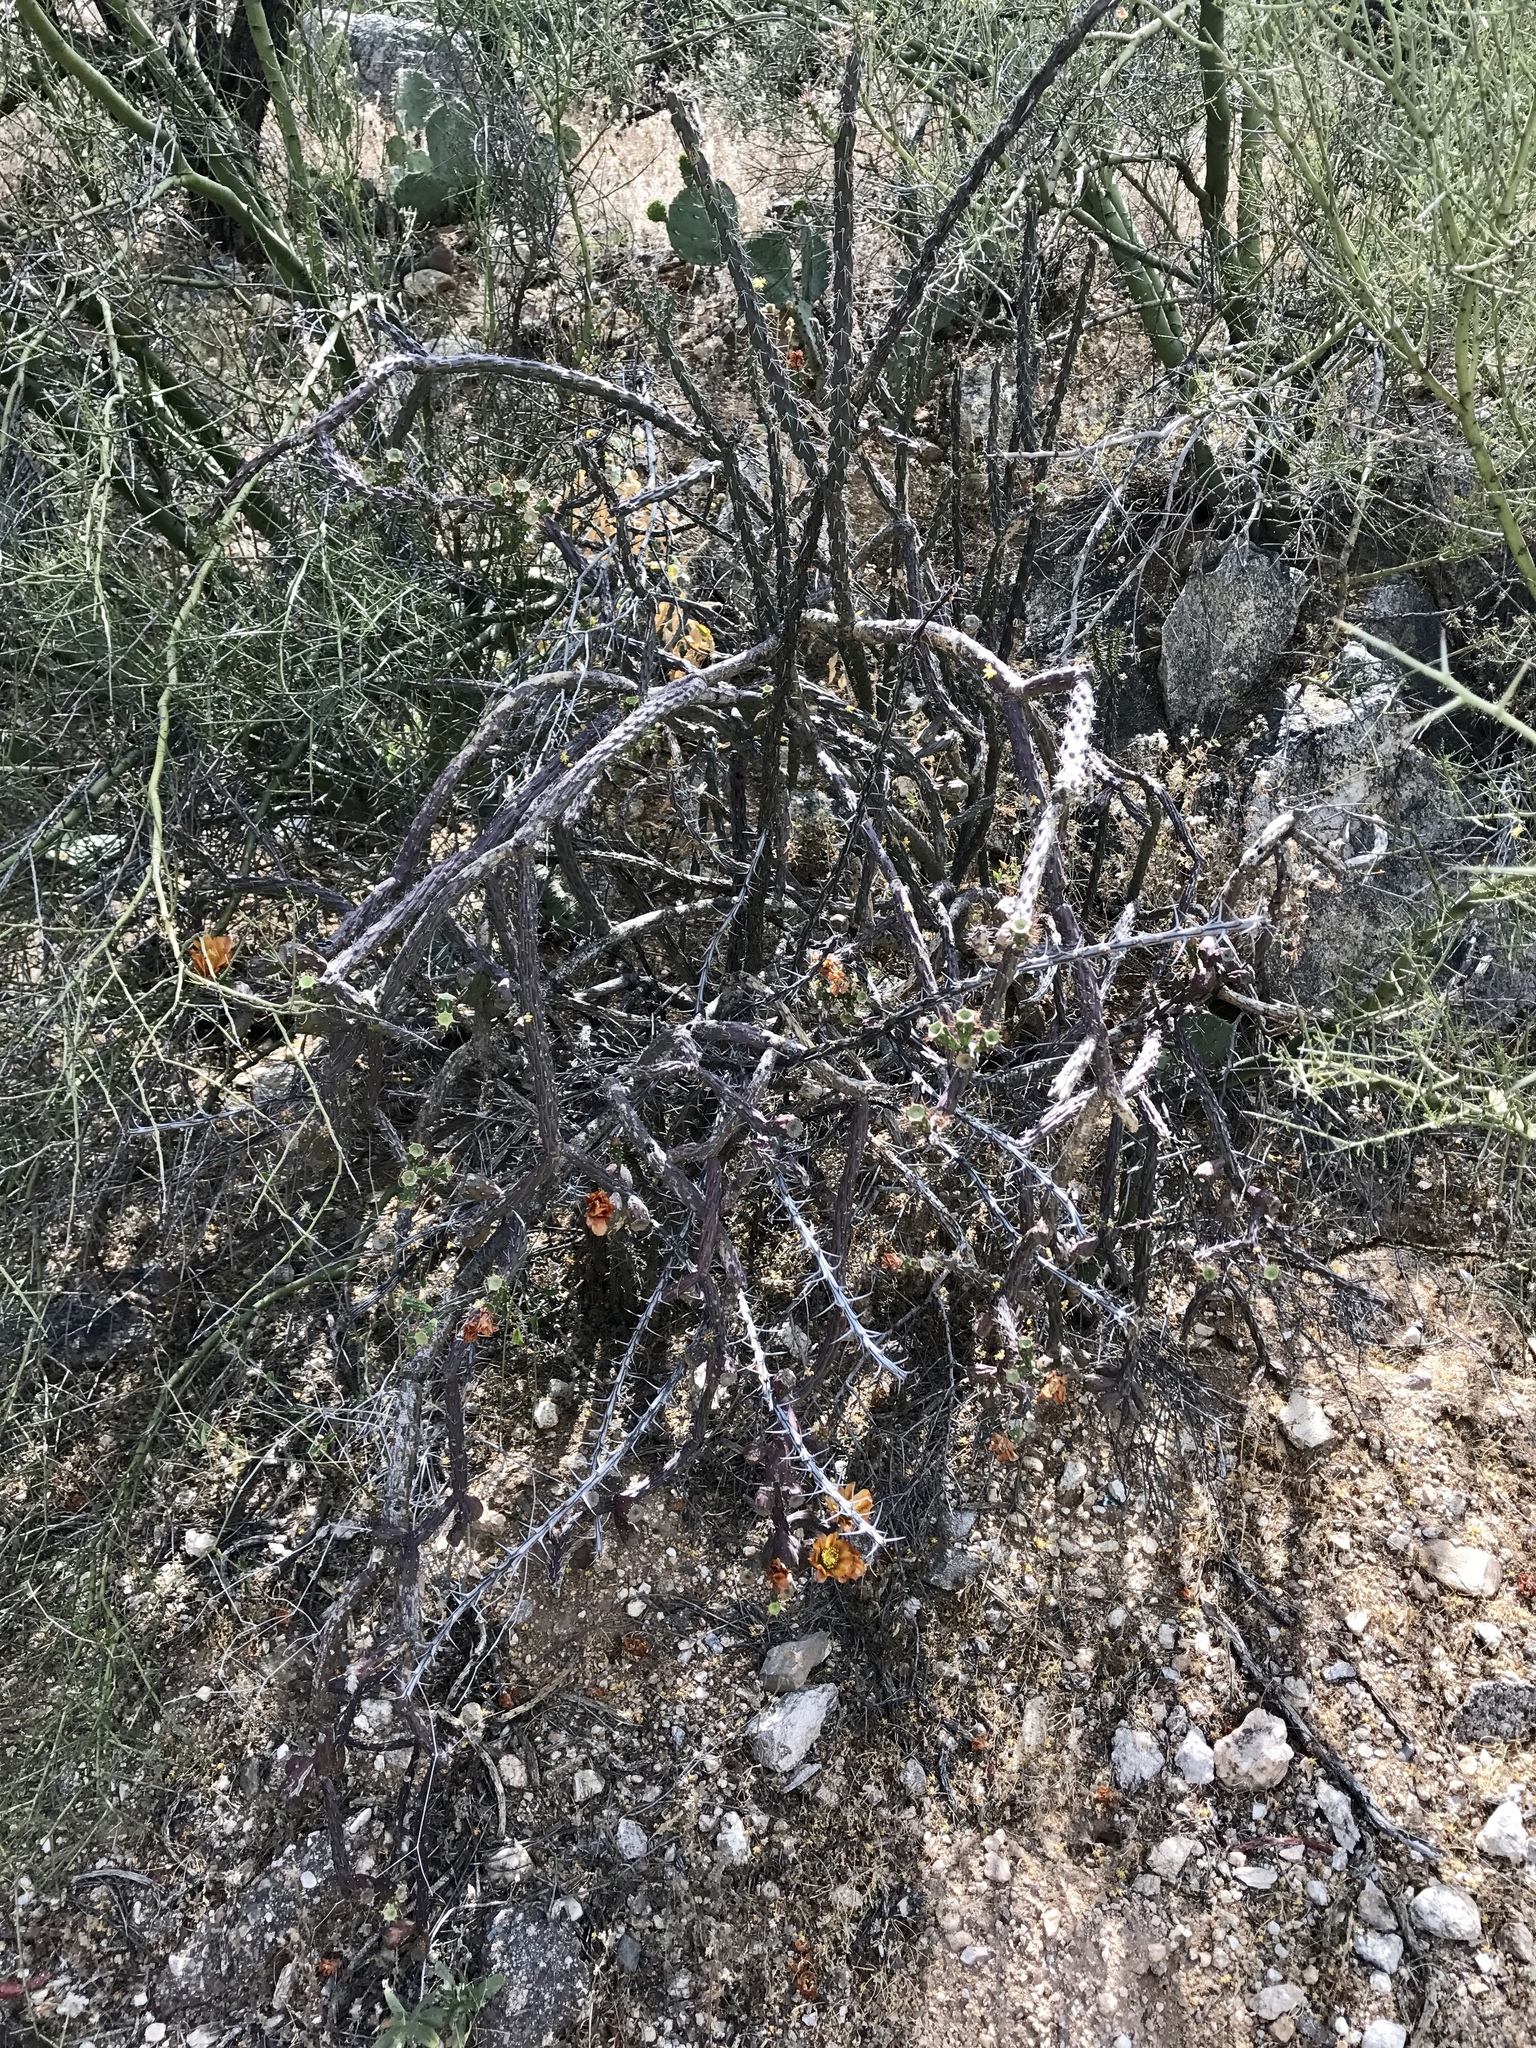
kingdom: Plantae
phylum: Tracheophyta
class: Magnoliopsida
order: Caryophyllales
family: Cactaceae
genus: Cylindropuntia
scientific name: Cylindropuntia thurberi
